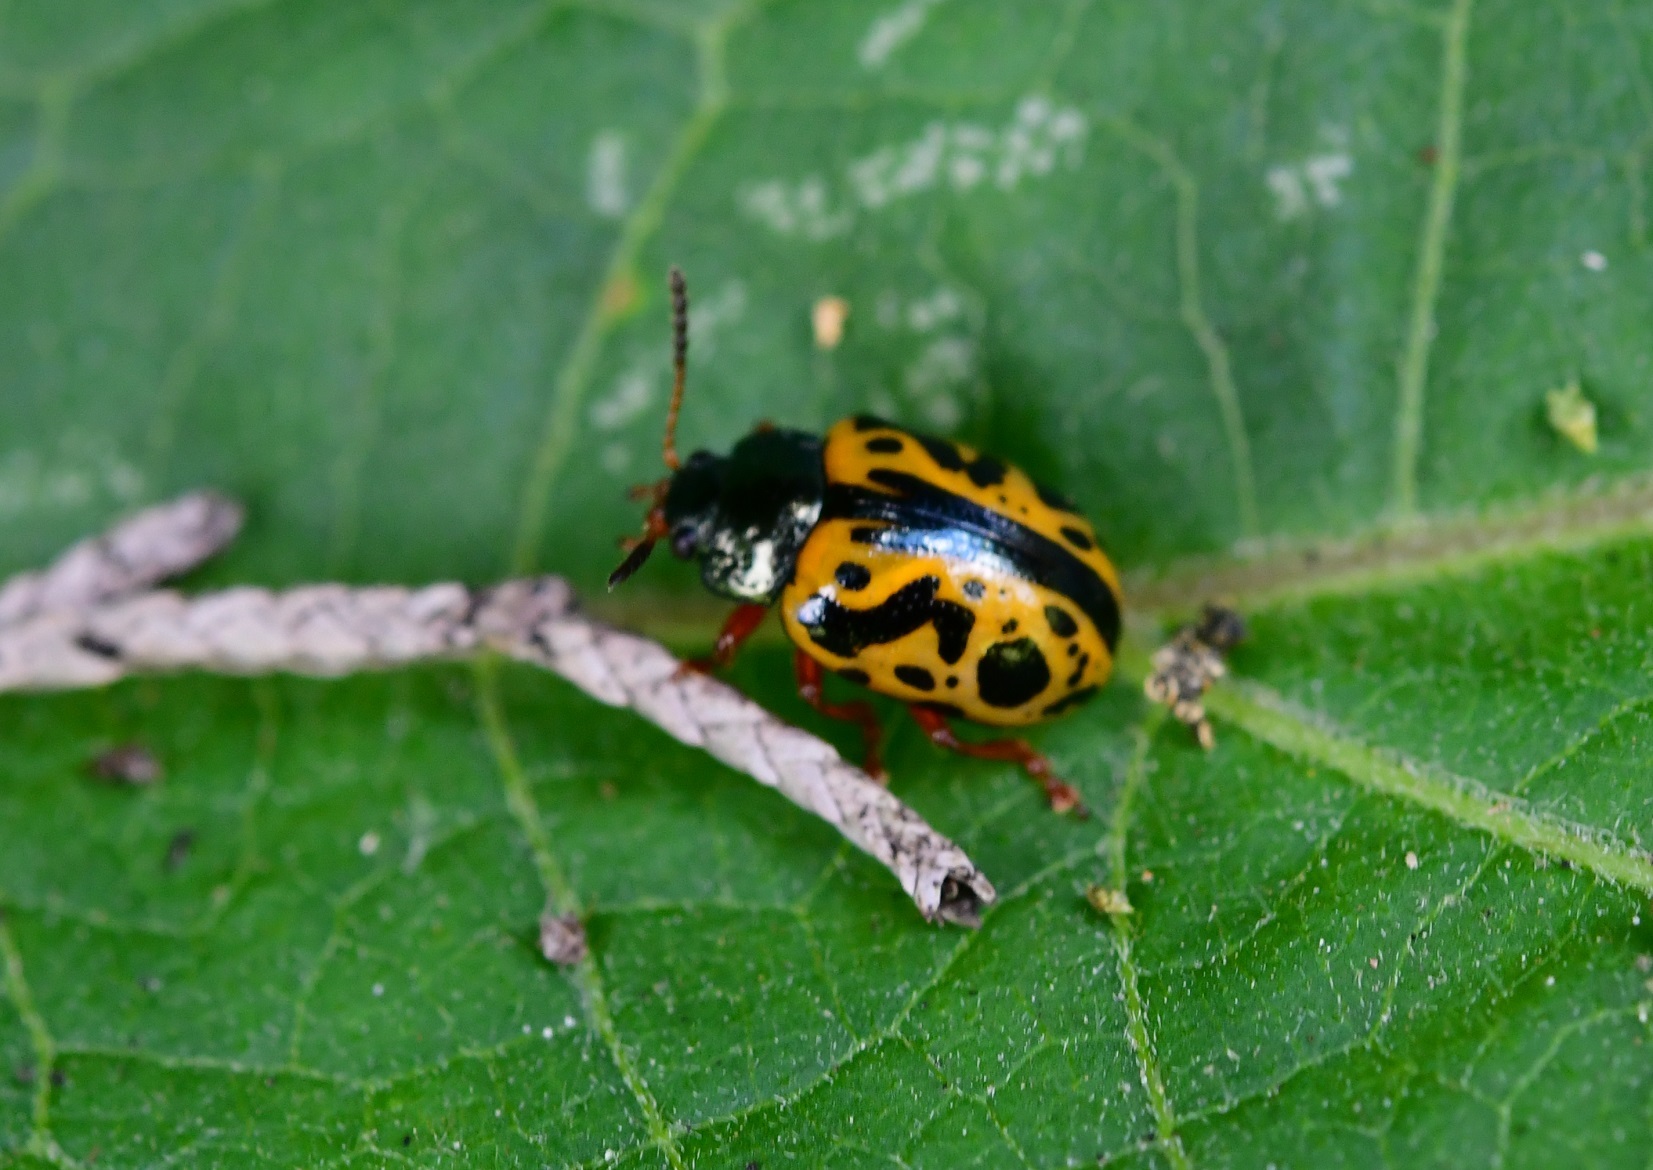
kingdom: Animalia
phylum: Arthropoda
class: Insecta
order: Coleoptera
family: Chrysomelidae
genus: Calligrapha
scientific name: Calligrapha fulvipes
